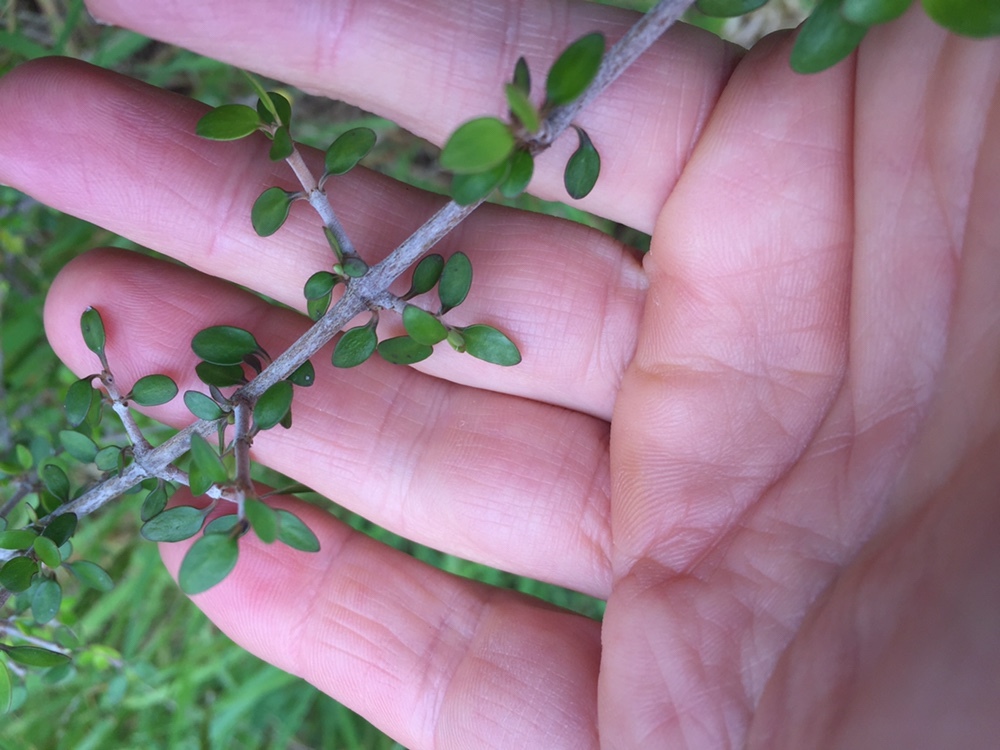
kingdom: Plantae
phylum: Tracheophyta
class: Magnoliopsida
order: Gentianales
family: Rubiaceae
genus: Coprosma
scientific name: Coprosma propinqua
